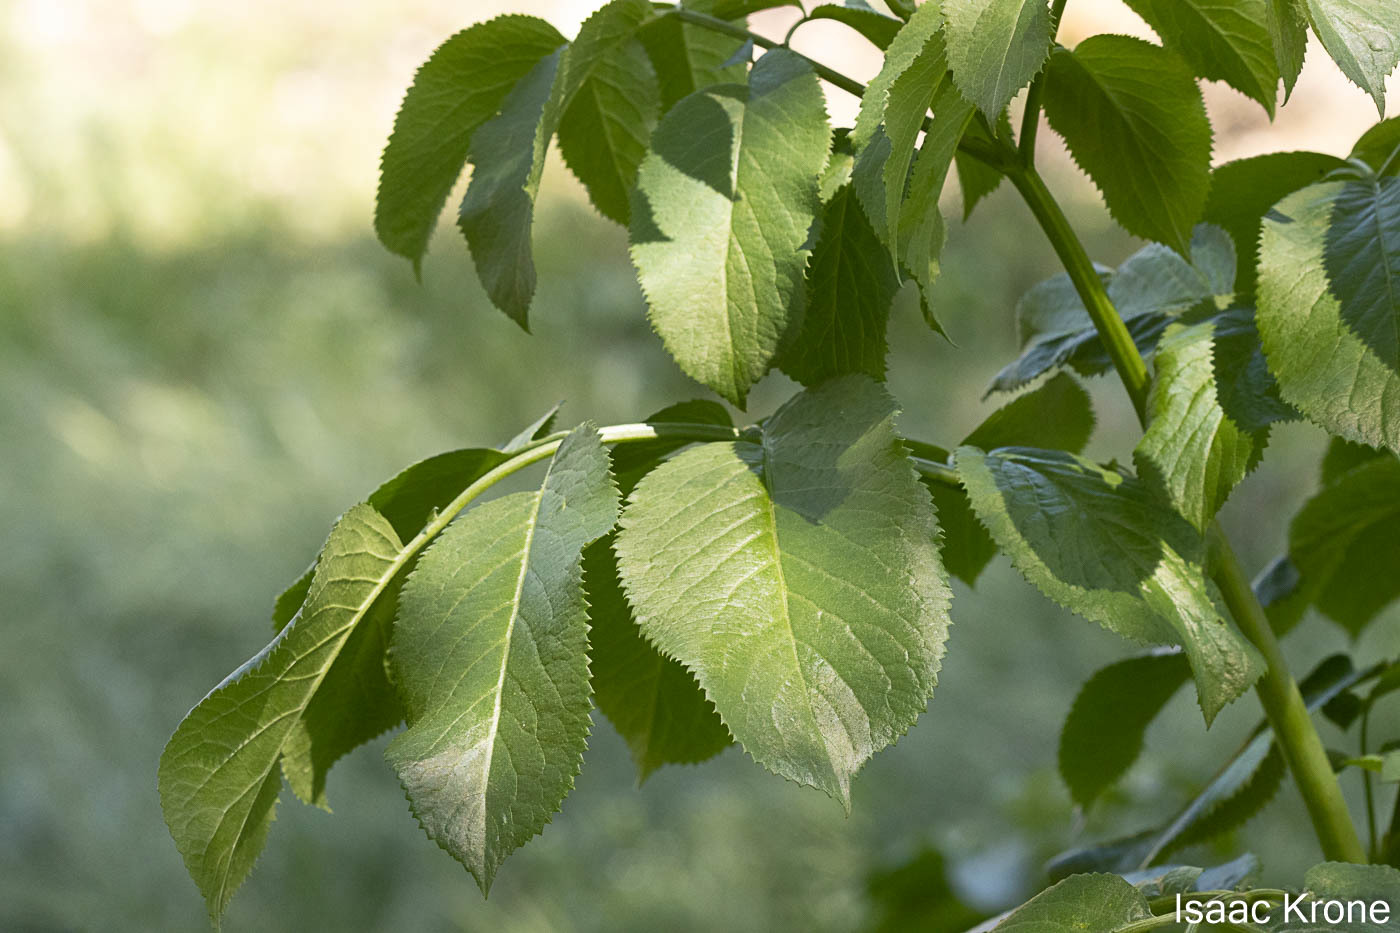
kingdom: Plantae
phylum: Tracheophyta
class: Magnoliopsida
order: Dipsacales
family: Viburnaceae
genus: Sambucus
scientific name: Sambucus cerulea
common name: Blue elder
